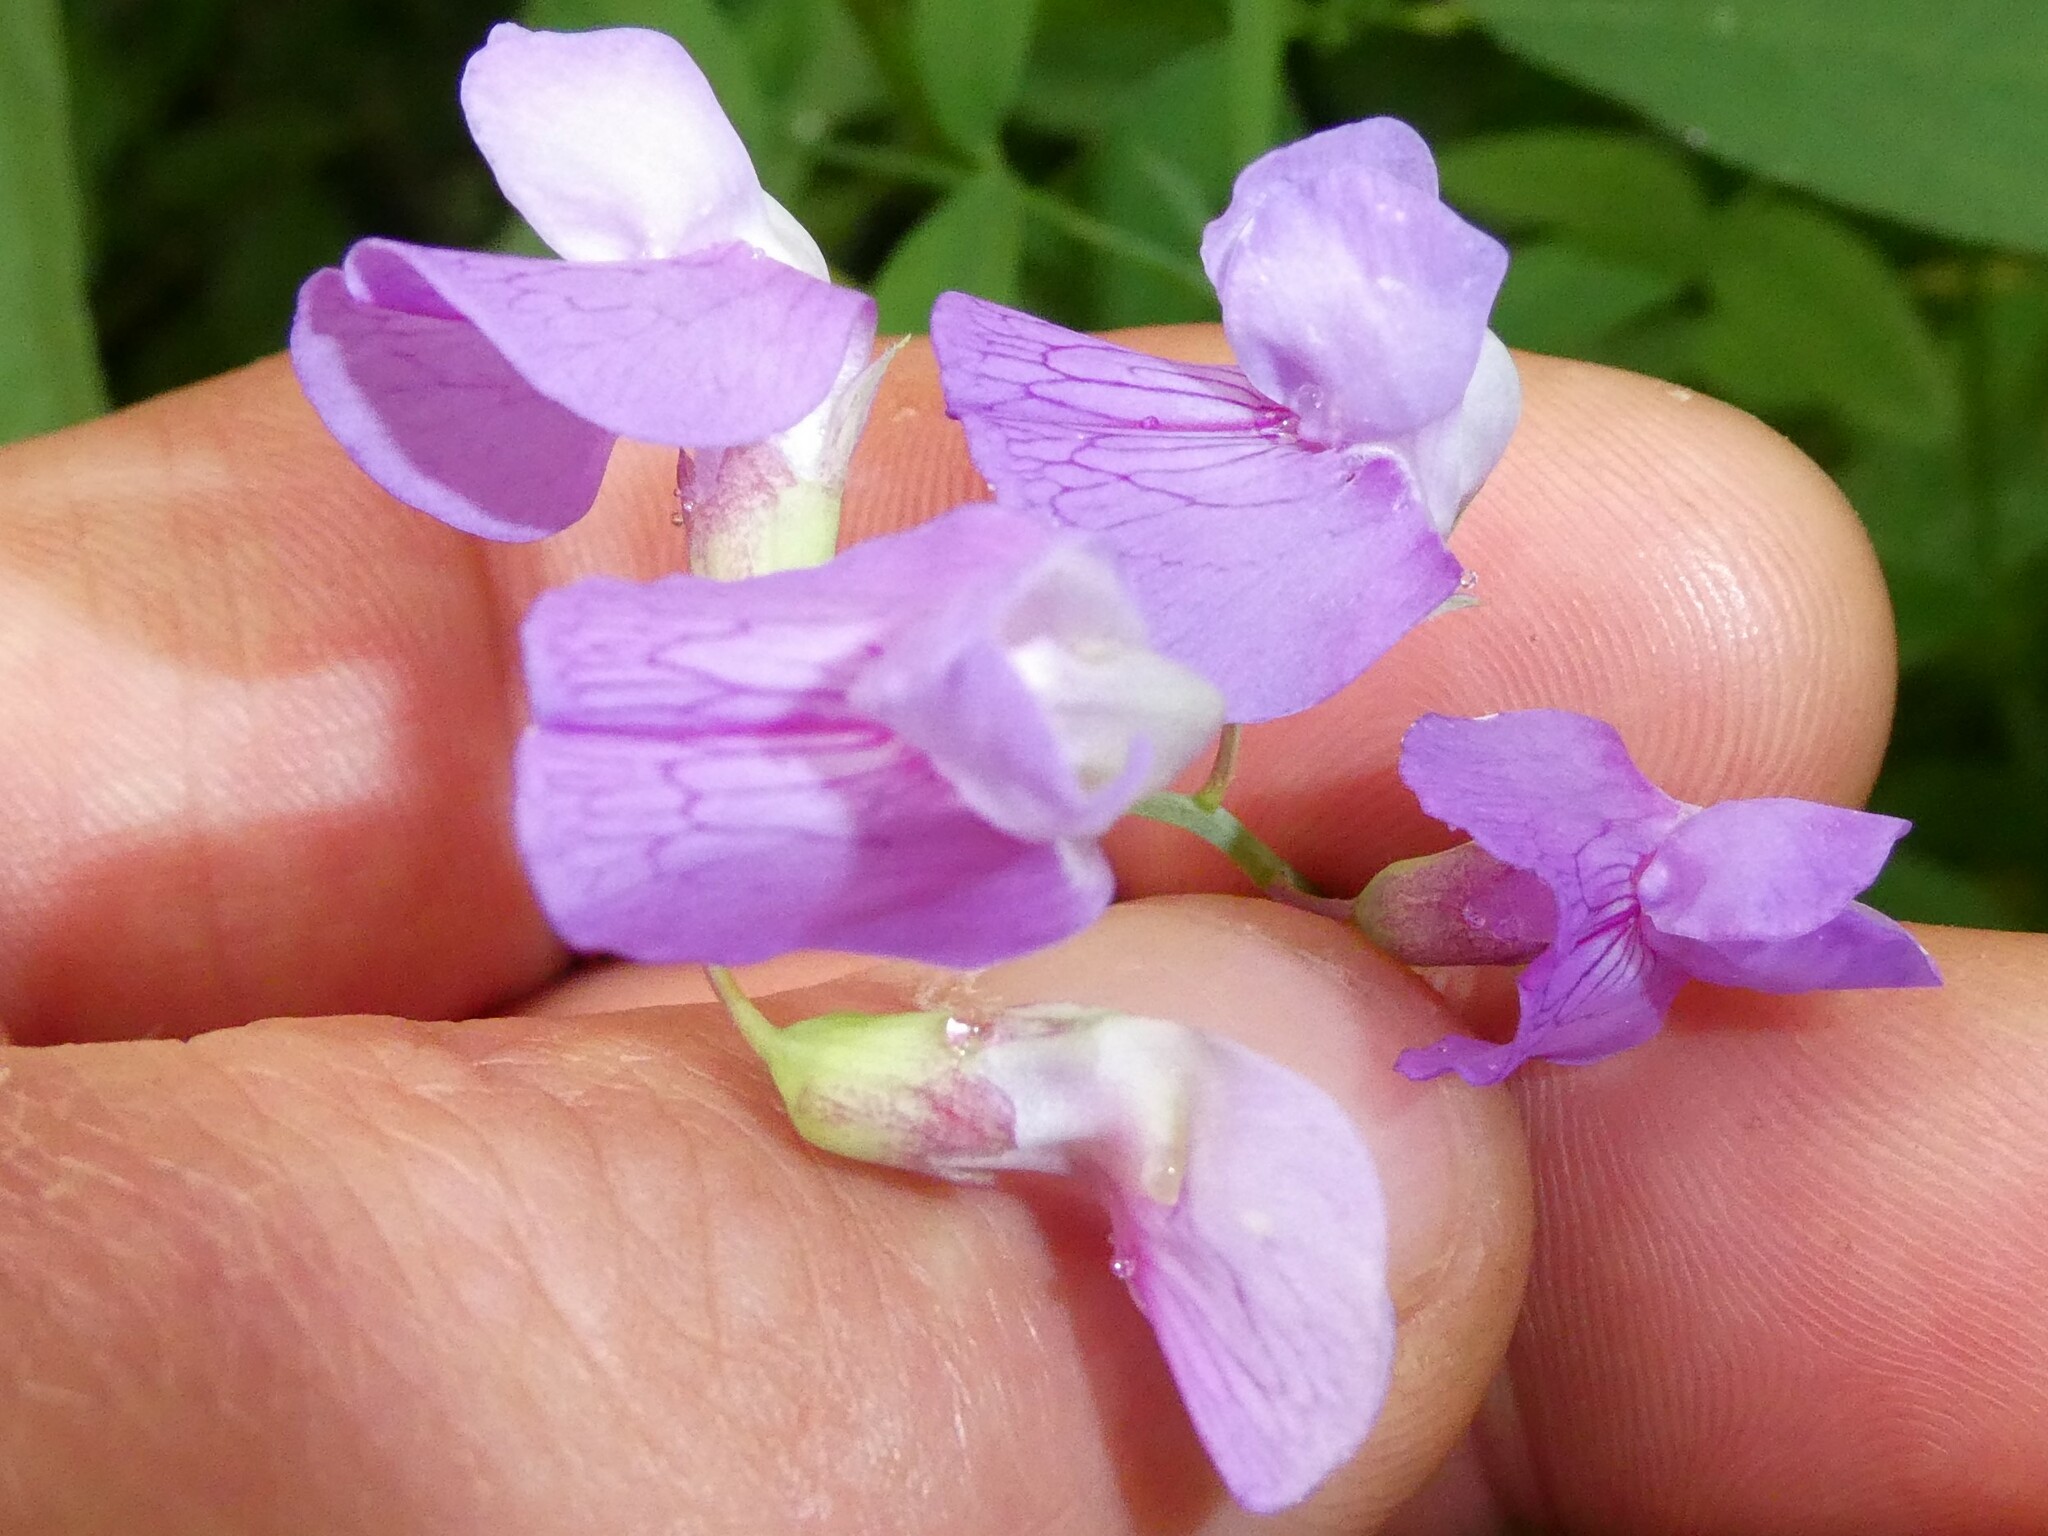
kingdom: Plantae
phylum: Tracheophyta
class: Magnoliopsida
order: Fabales
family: Fabaceae
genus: Lathyrus
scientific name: Lathyrus palustris
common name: Marsh pea
